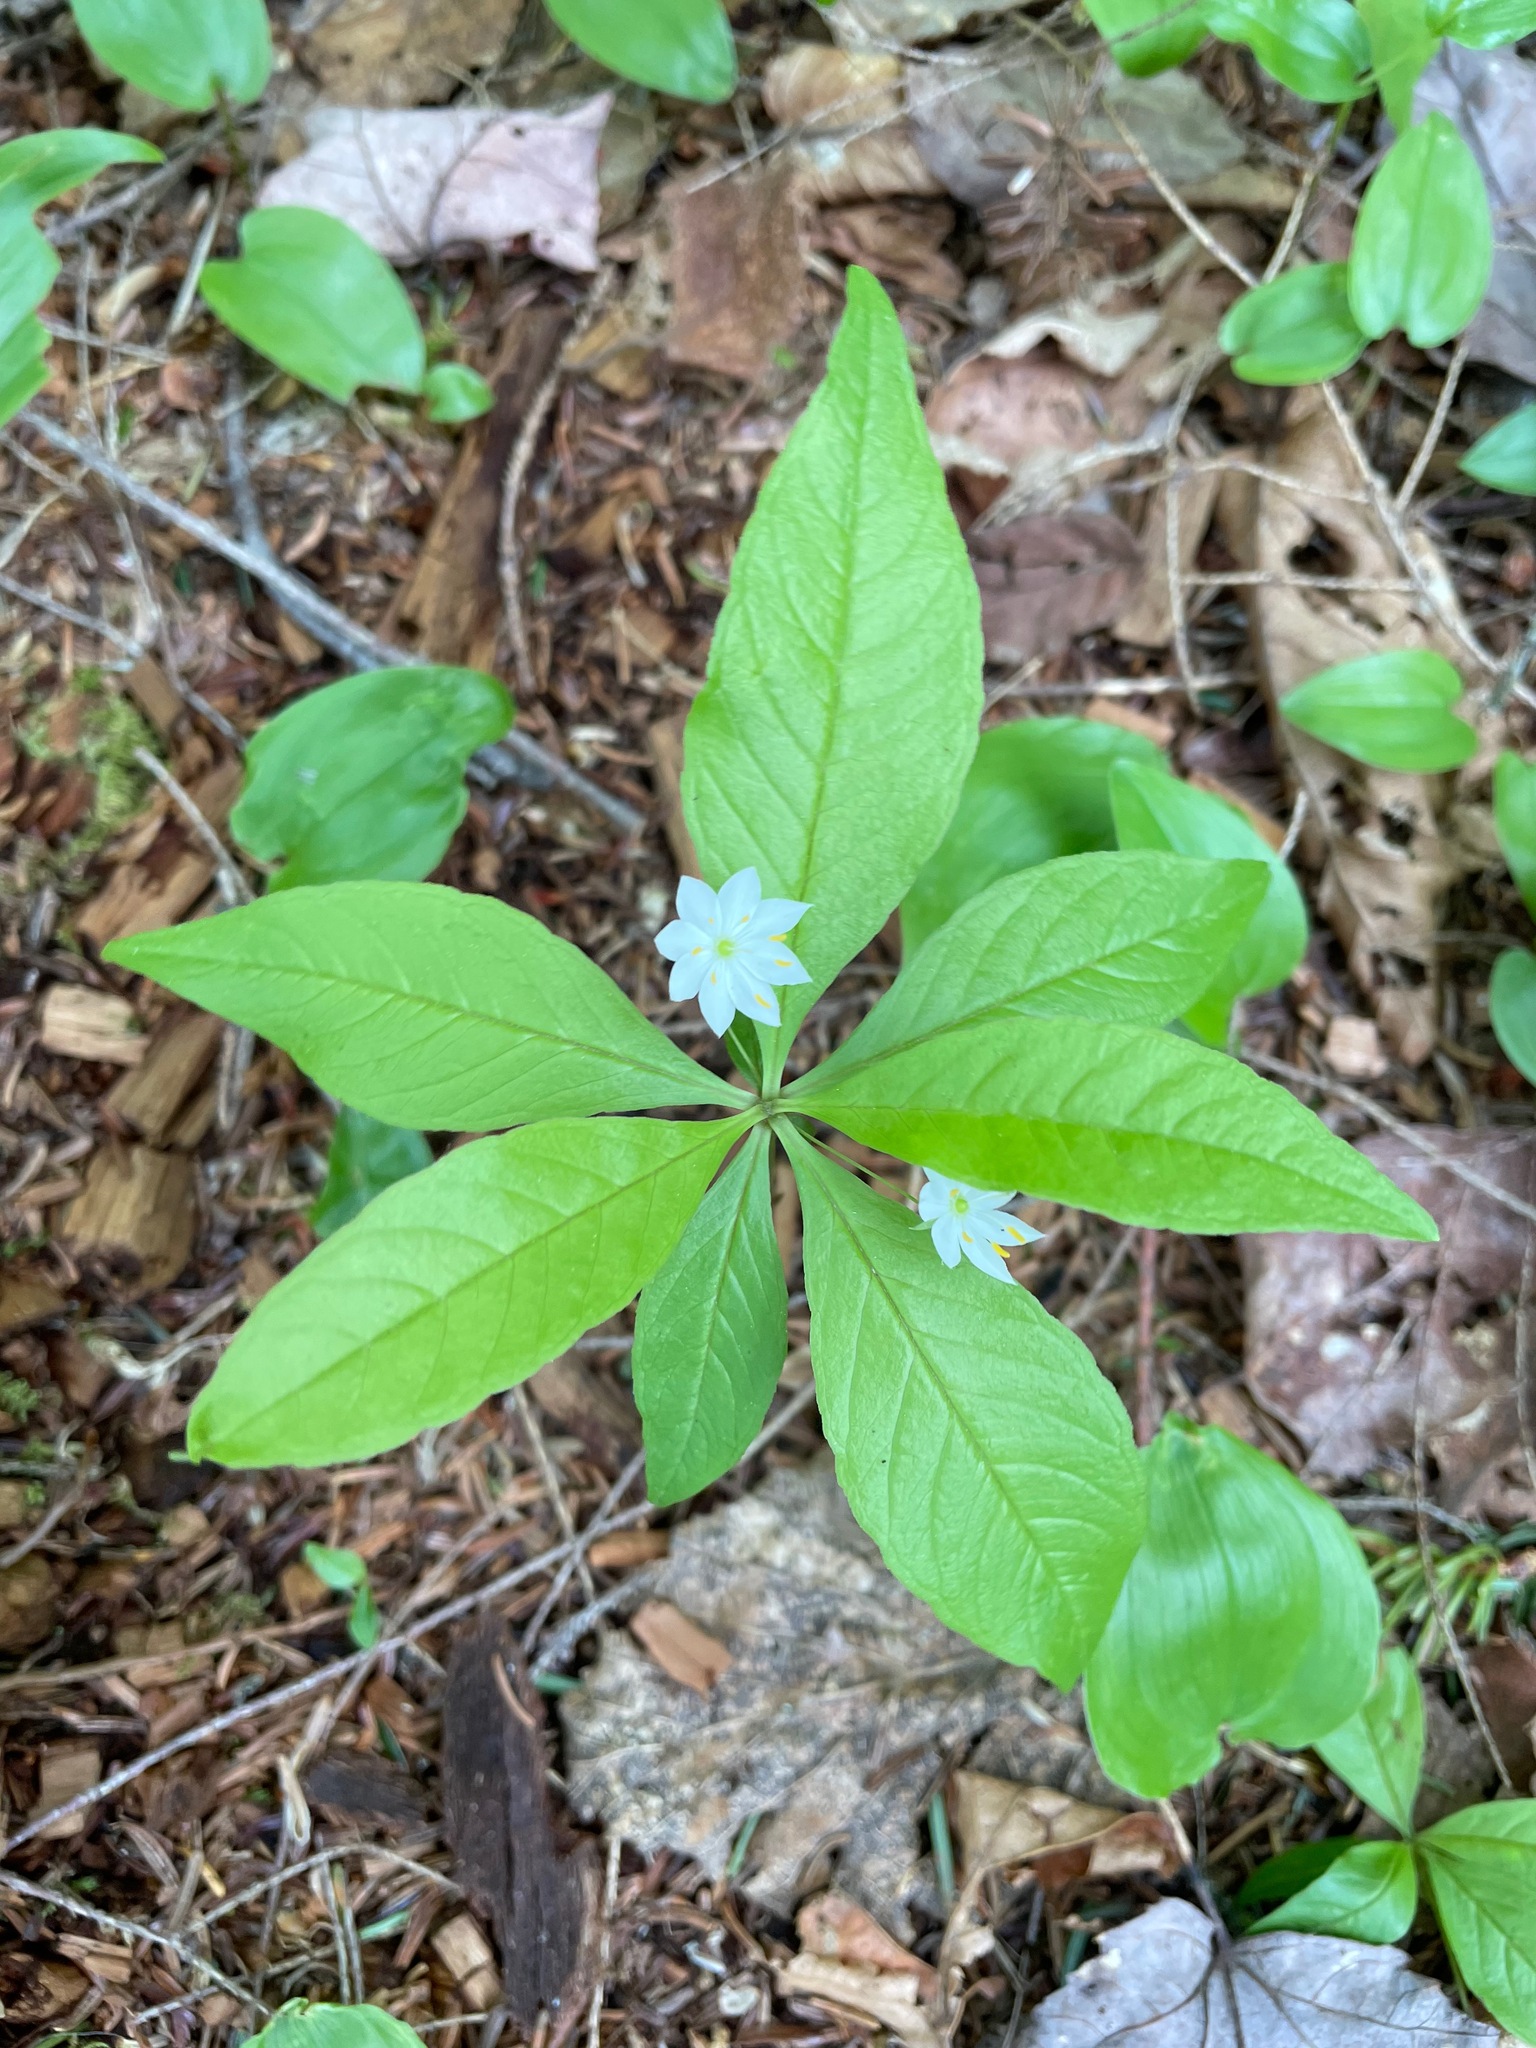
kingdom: Plantae
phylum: Tracheophyta
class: Magnoliopsida
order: Ericales
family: Primulaceae
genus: Lysimachia
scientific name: Lysimachia borealis
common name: American starflower
